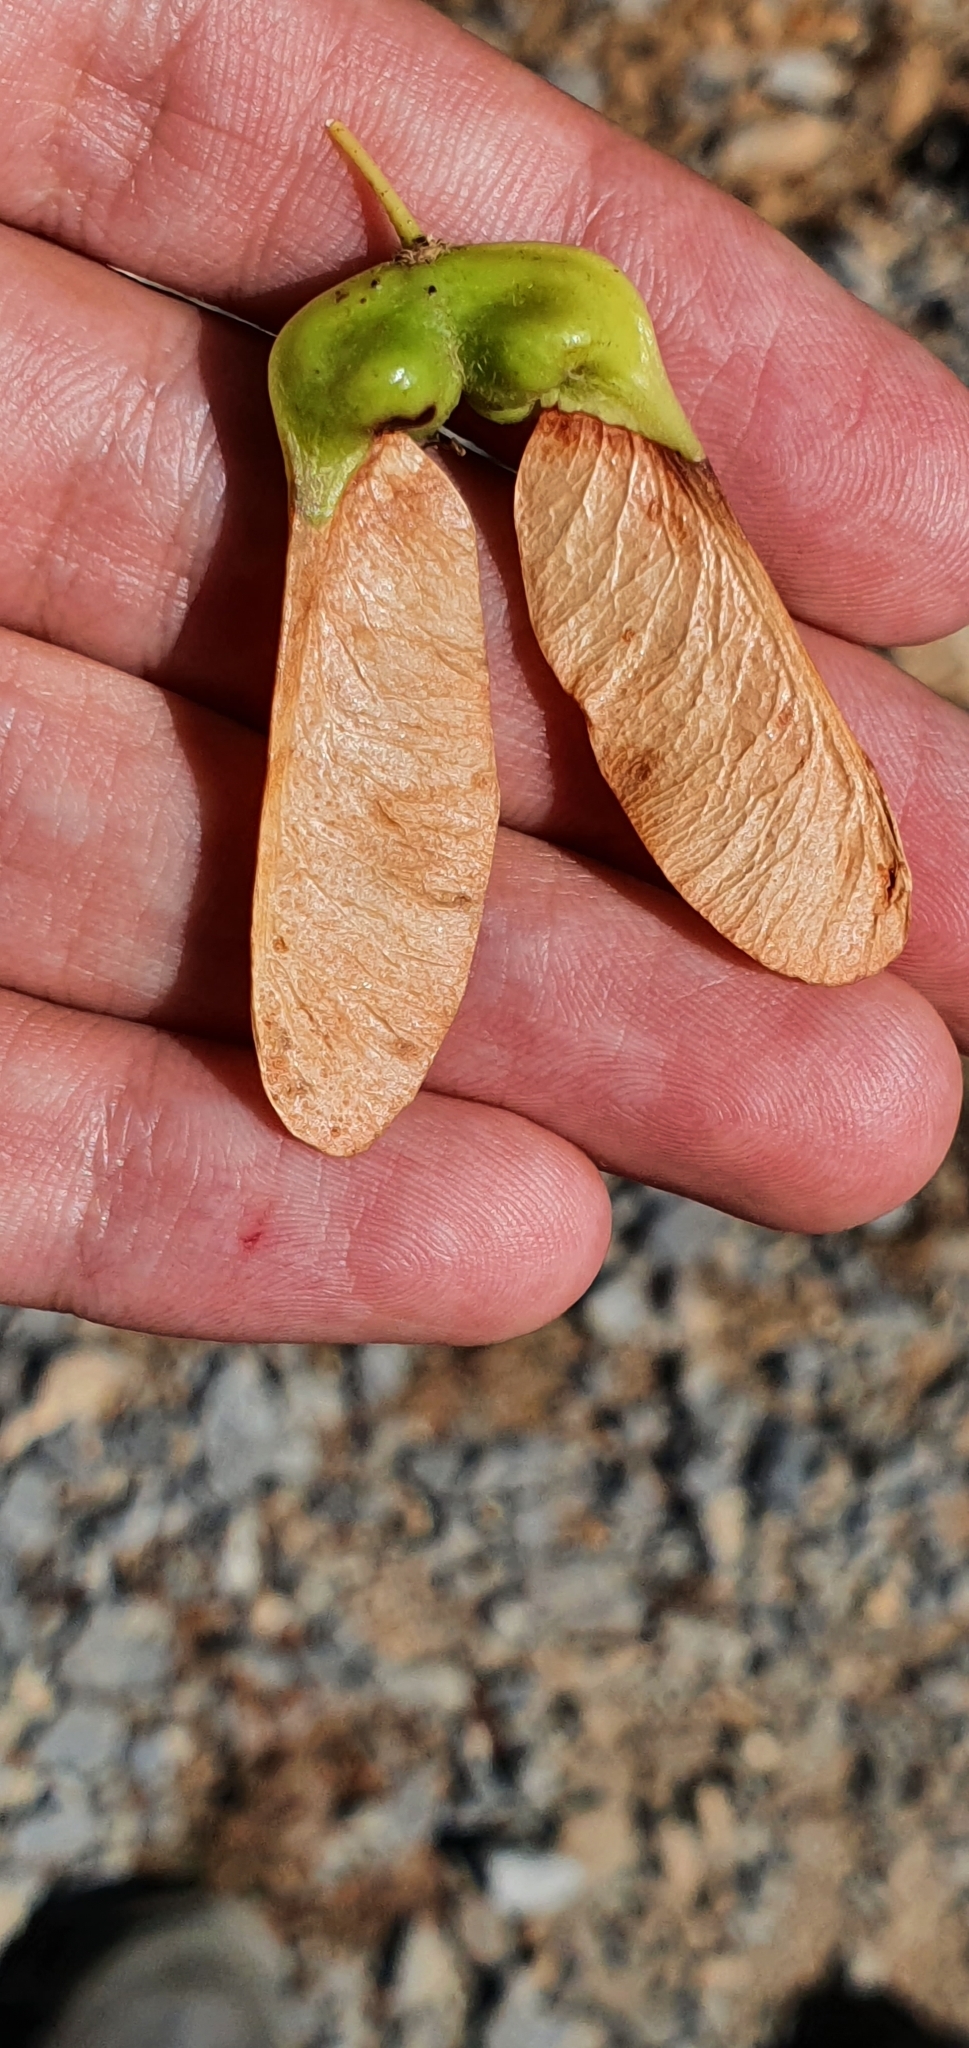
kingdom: Plantae
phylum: Tracheophyta
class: Magnoliopsida
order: Sapindales
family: Sapindaceae
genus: Acer
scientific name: Acer opalus
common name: Italian maple
